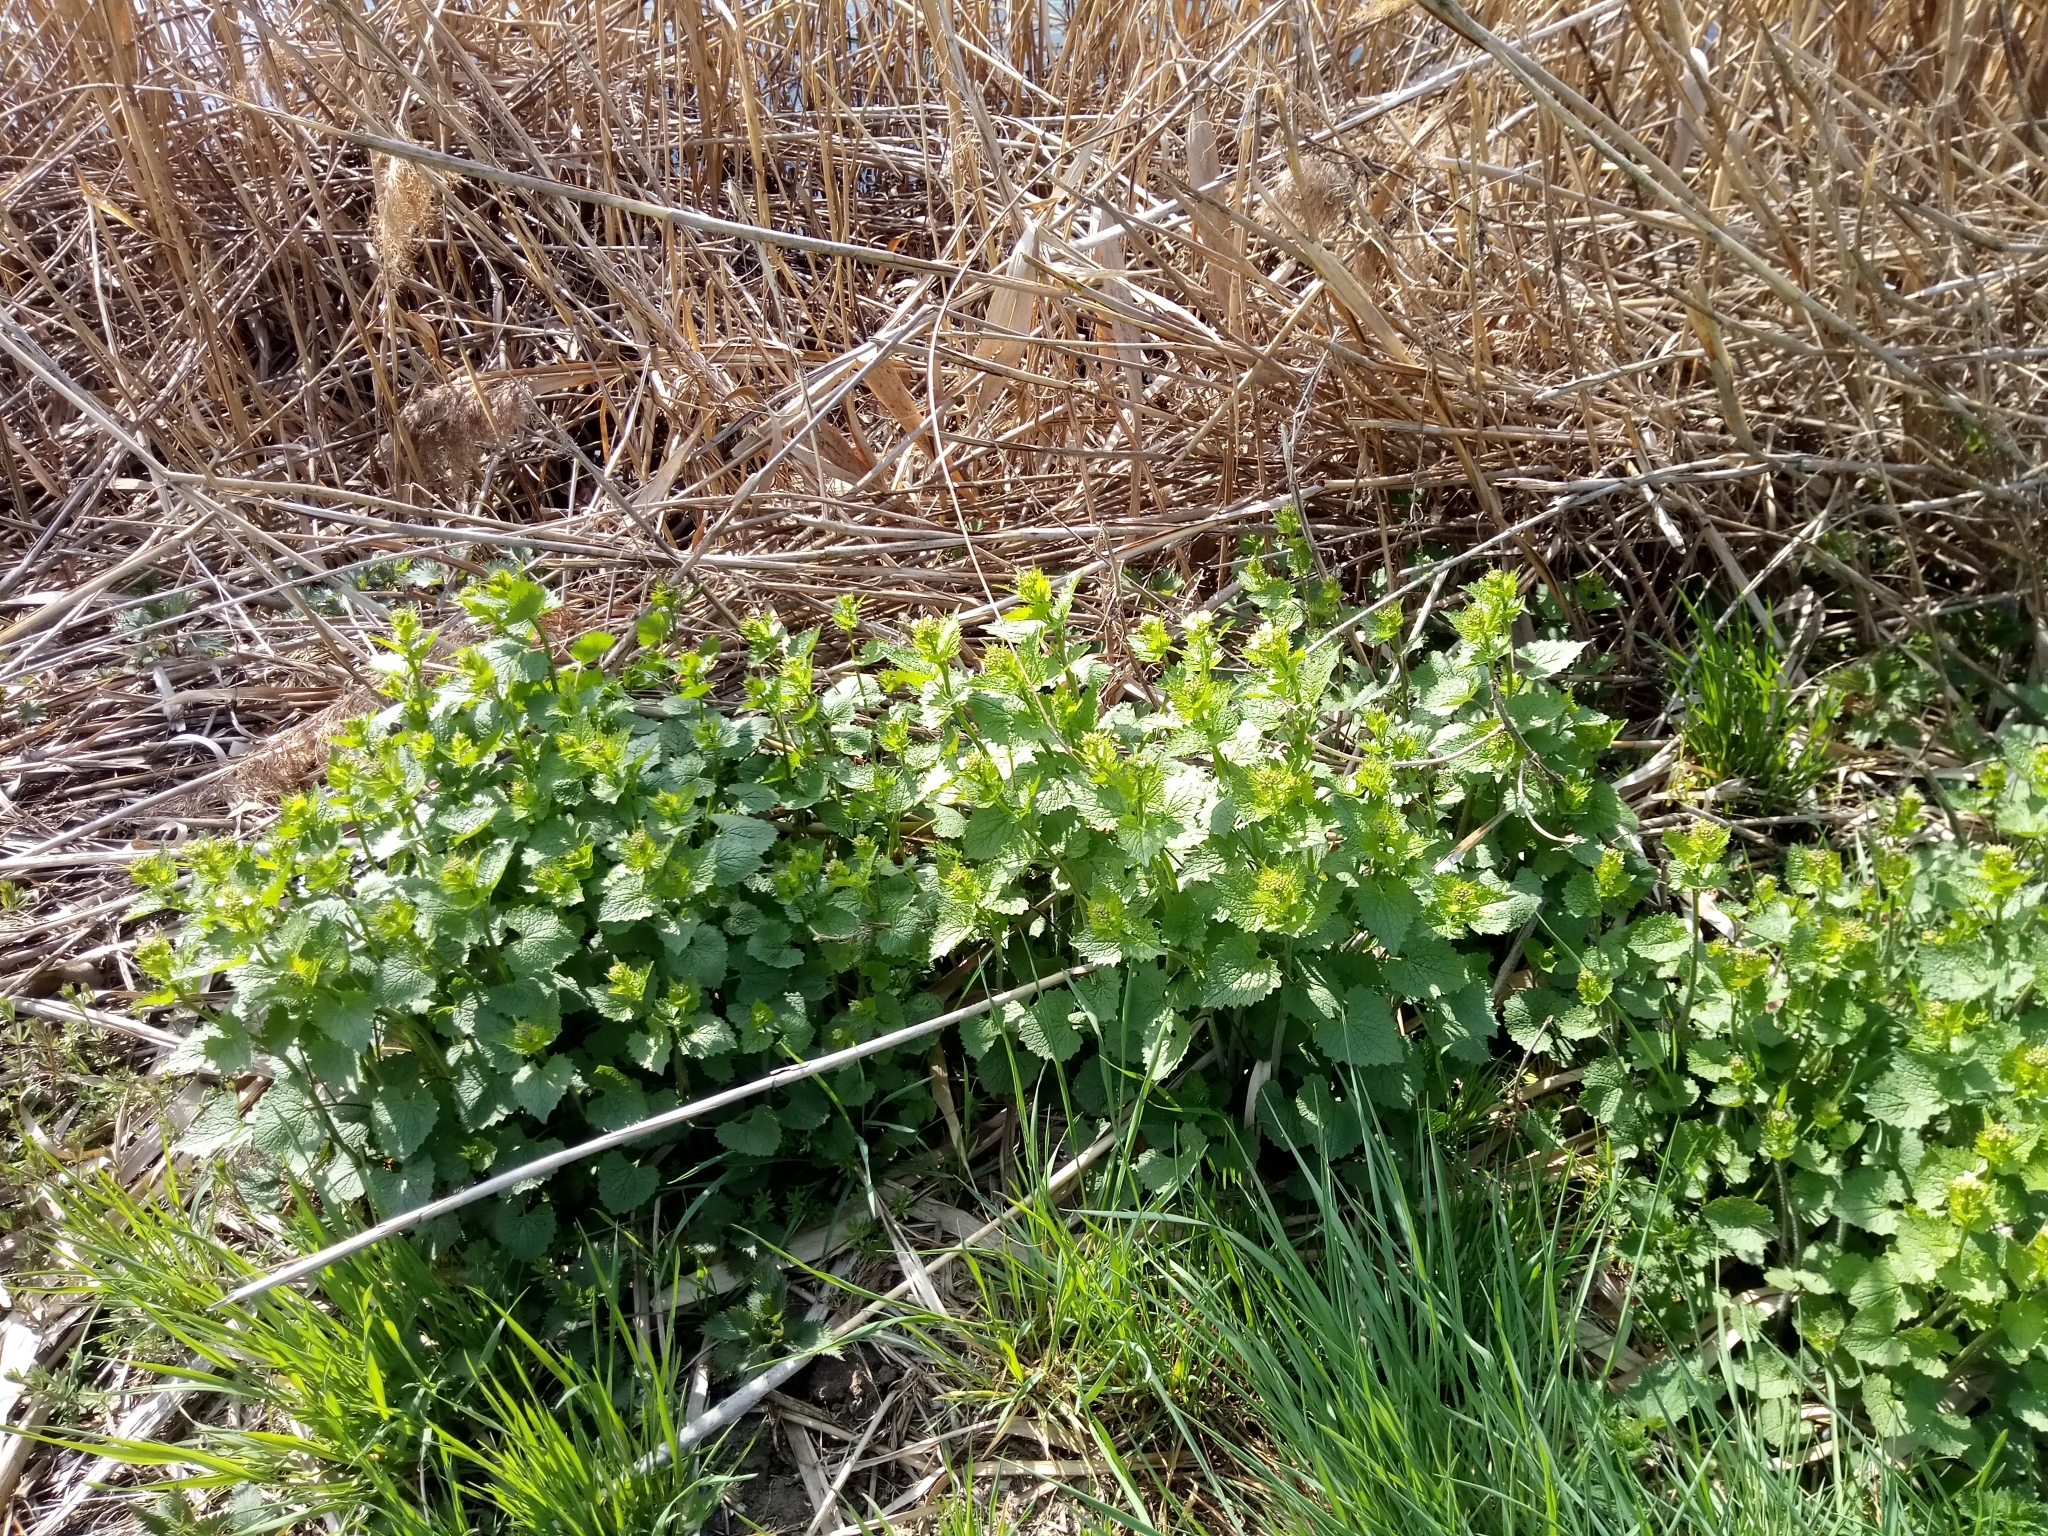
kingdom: Plantae
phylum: Tracheophyta
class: Magnoliopsida
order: Brassicales
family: Brassicaceae
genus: Alliaria
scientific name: Alliaria petiolata
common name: Garlic mustard
